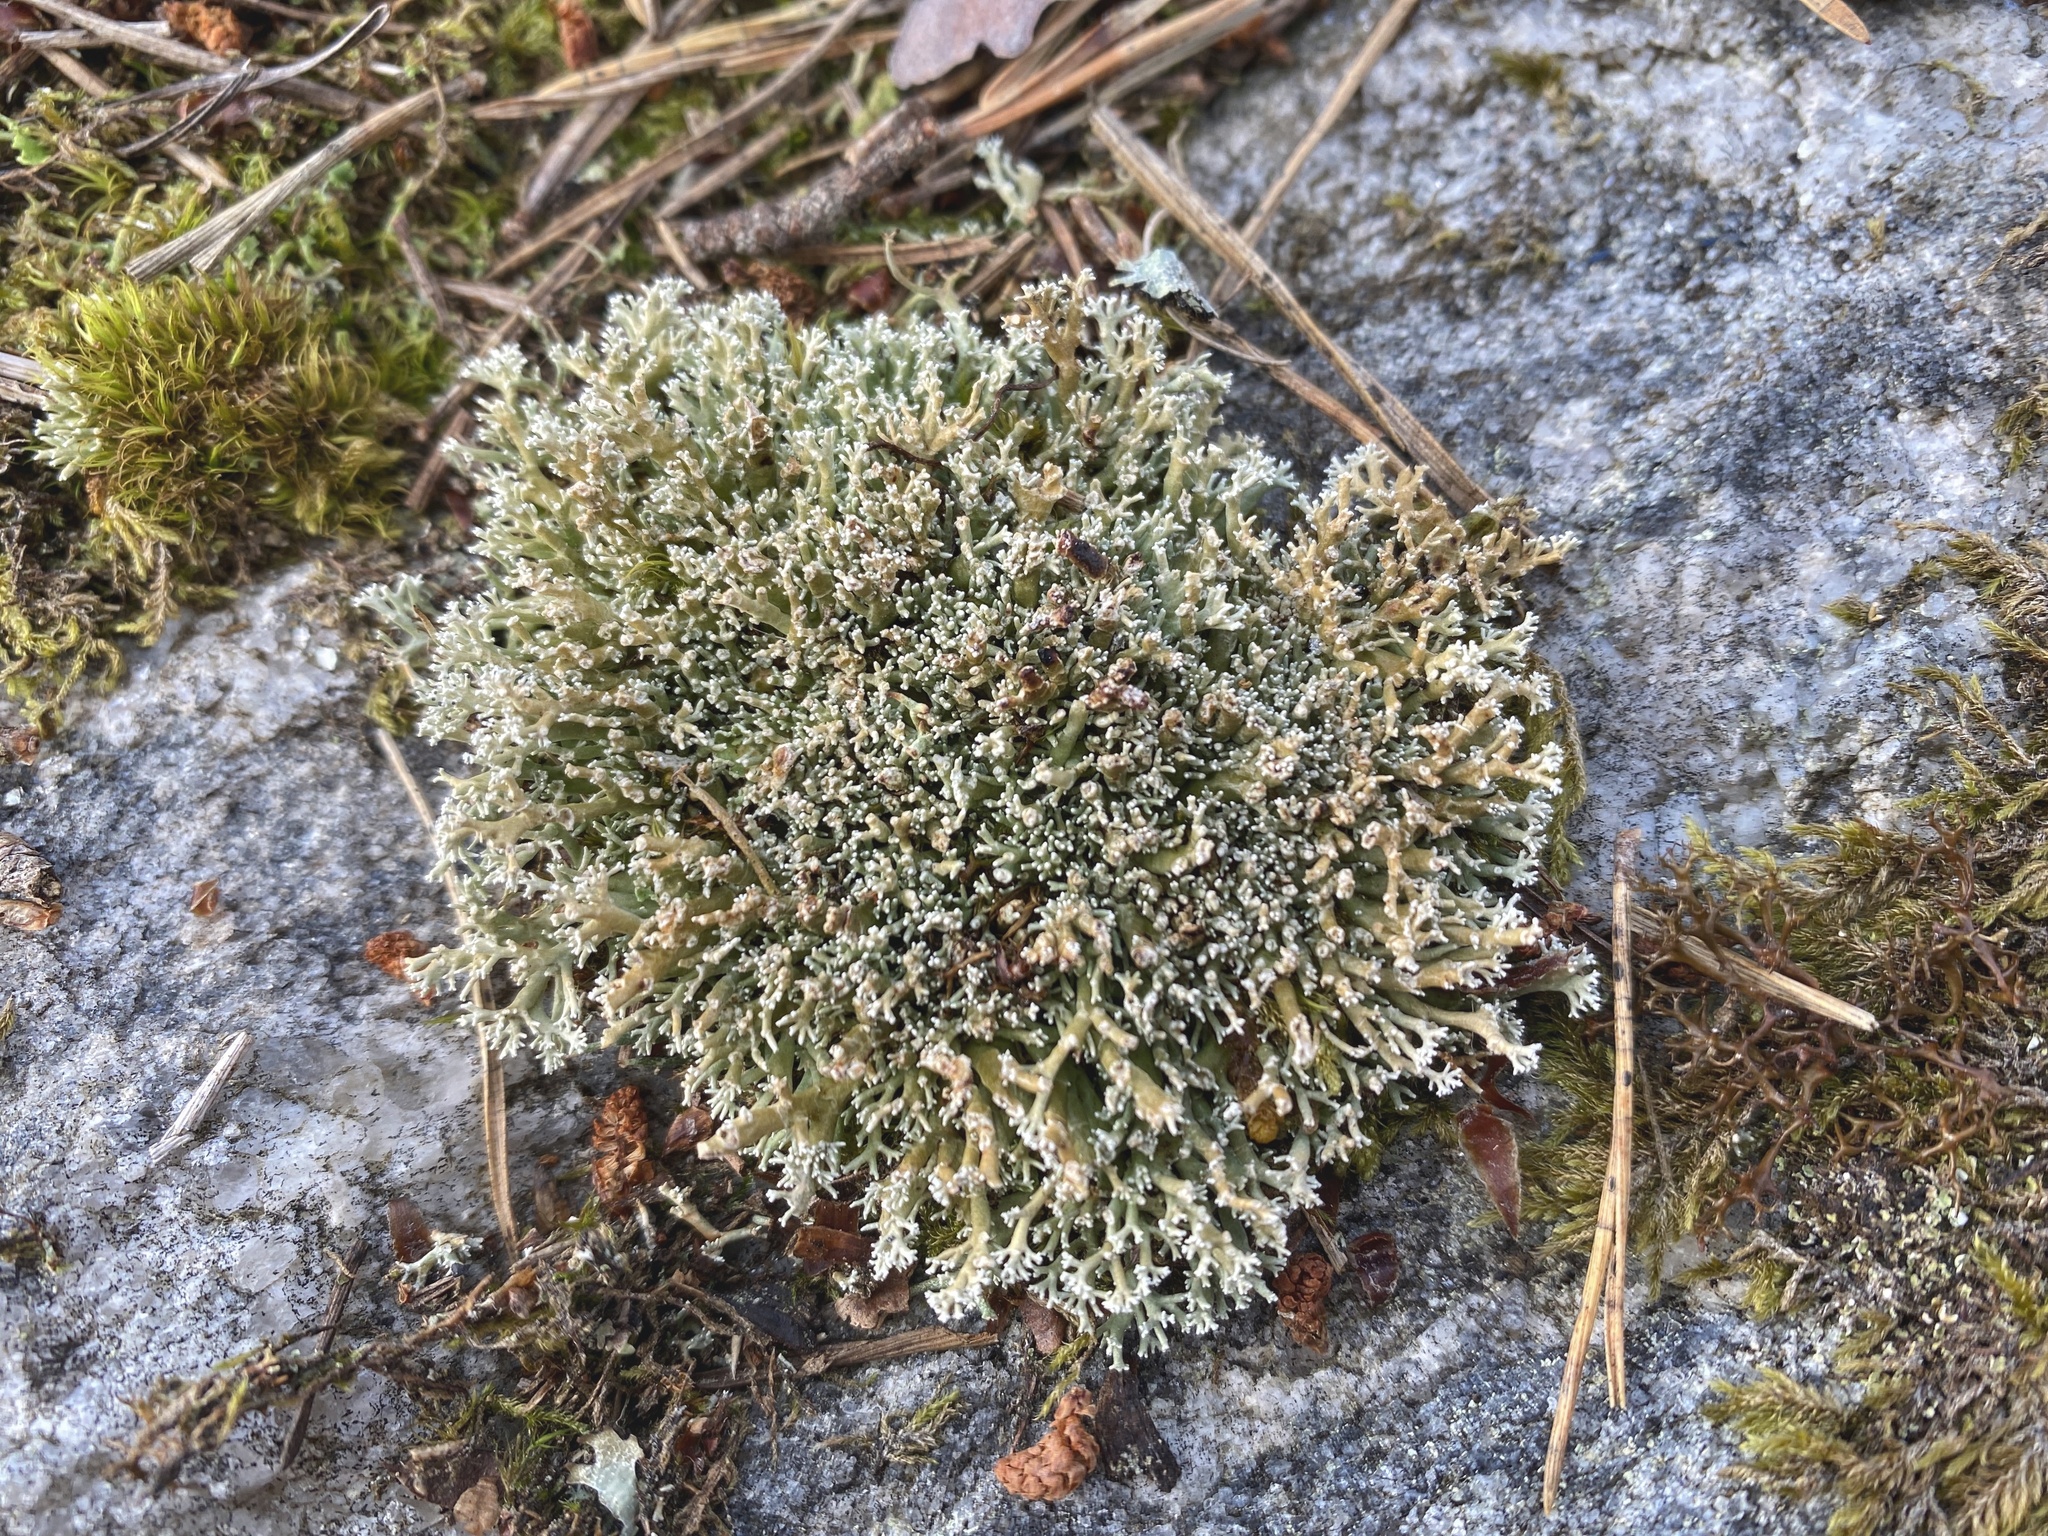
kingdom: Fungi
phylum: Ascomycota
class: Lecanoromycetes
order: Lecanorales
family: Sphaerophoraceae
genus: Sphaerophorus
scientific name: Sphaerophorus globosus
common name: Globe ball lichen
